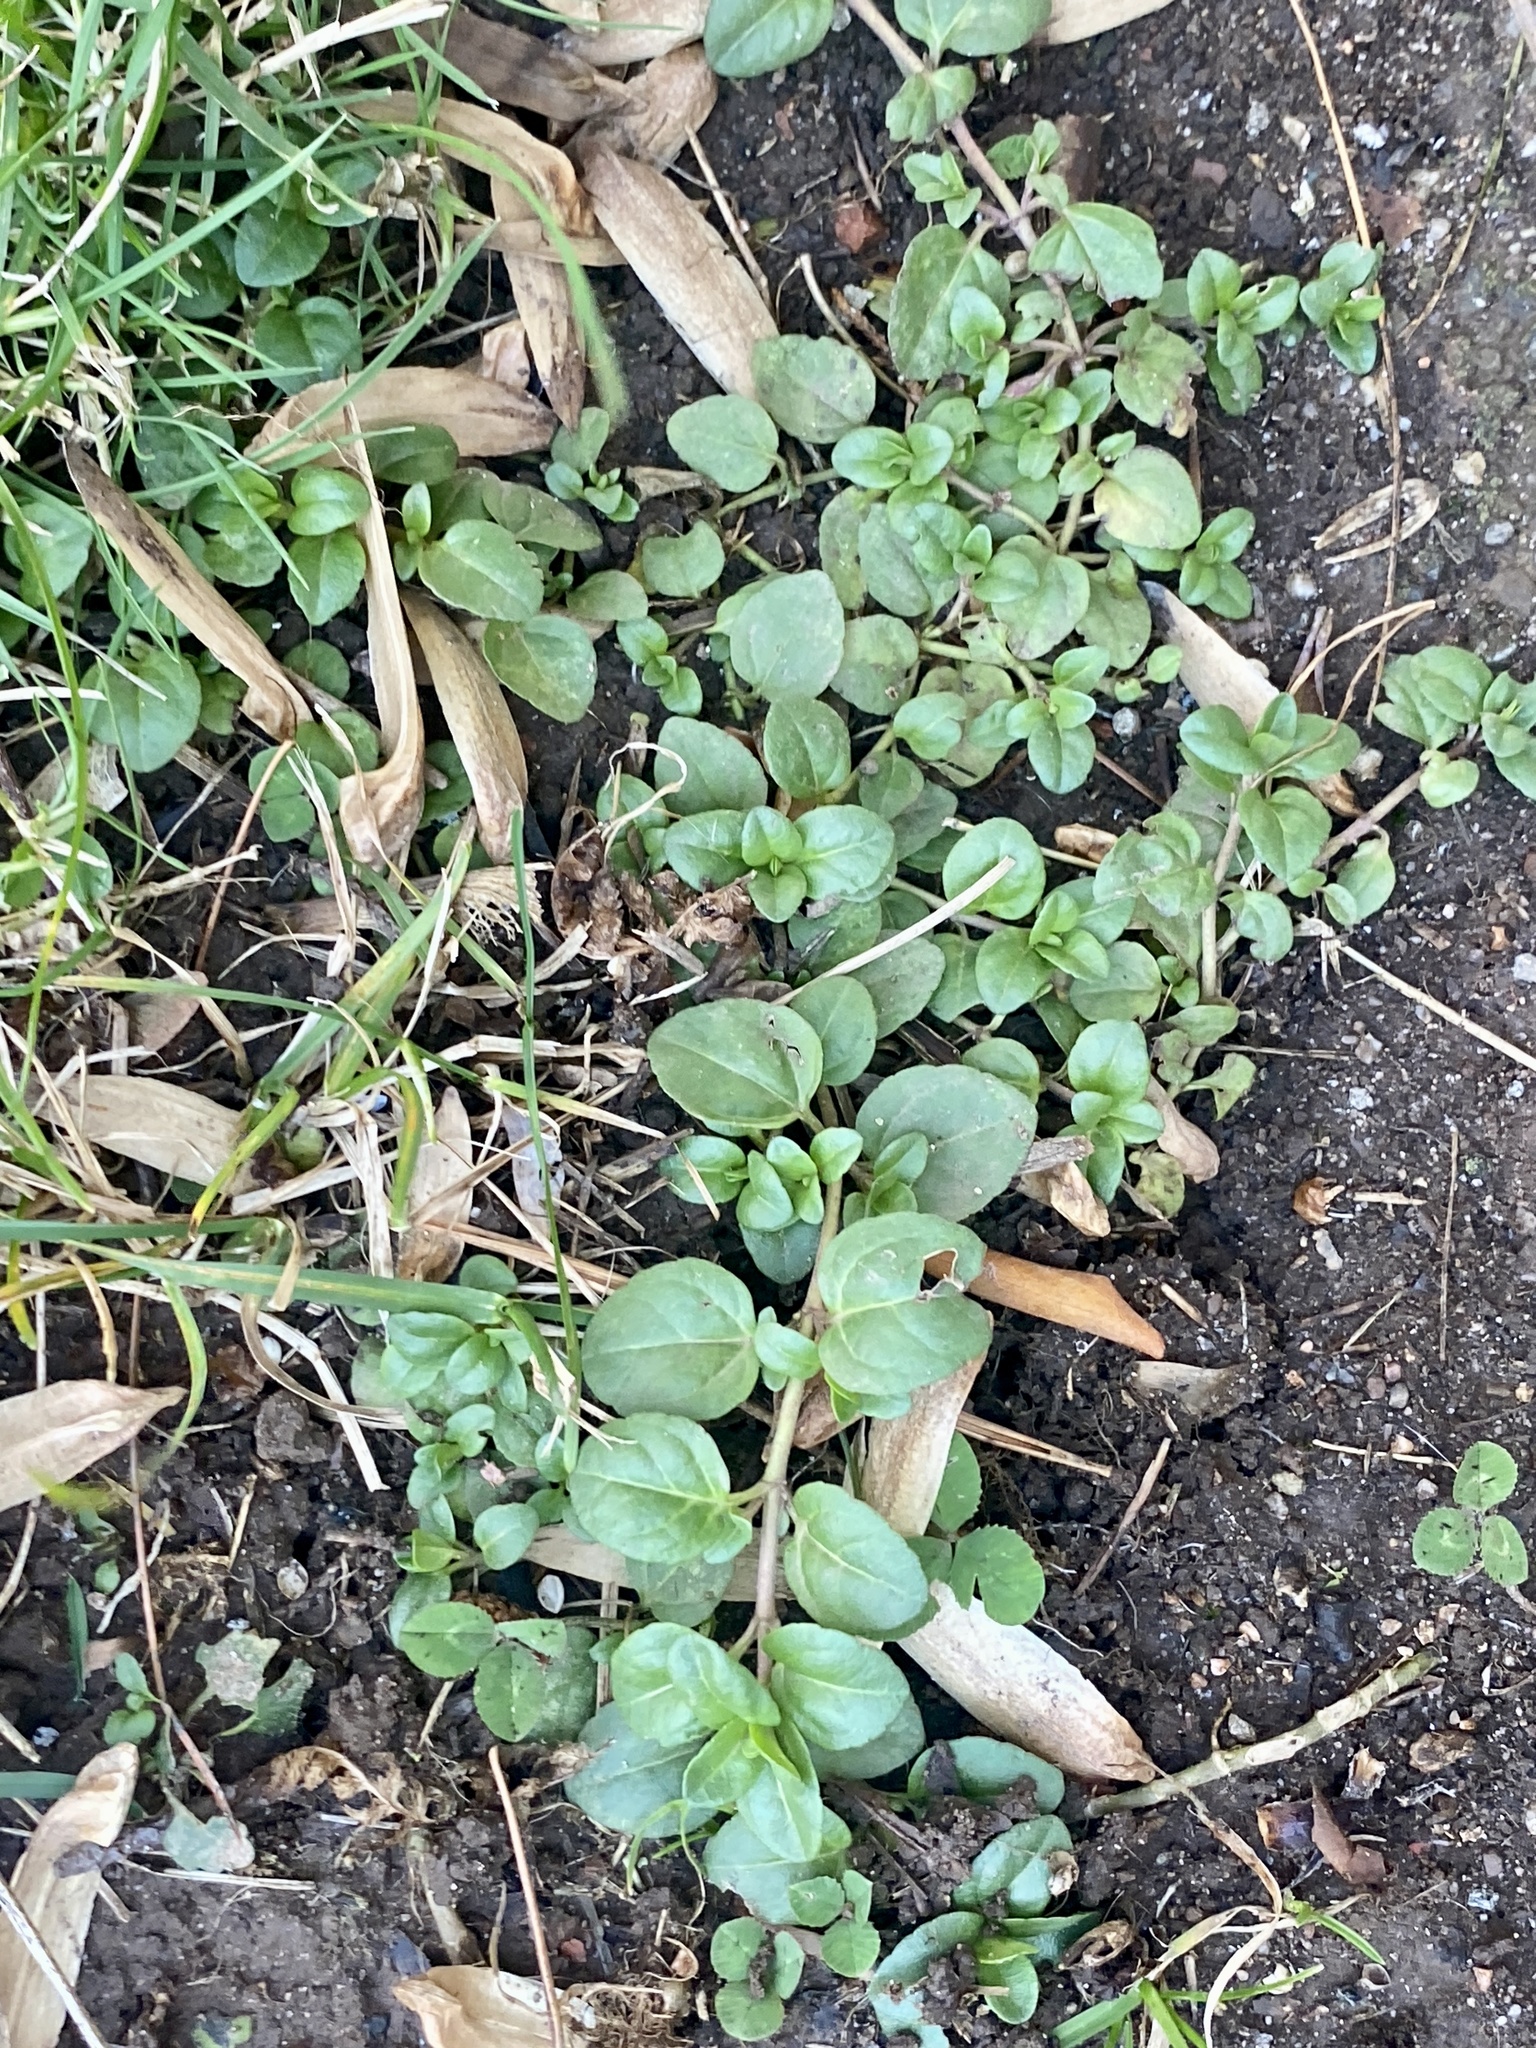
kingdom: Plantae
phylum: Tracheophyta
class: Magnoliopsida
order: Lamiales
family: Plantaginaceae
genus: Veronica
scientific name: Veronica serpyllifolia
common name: Thyme-leaved speedwell
